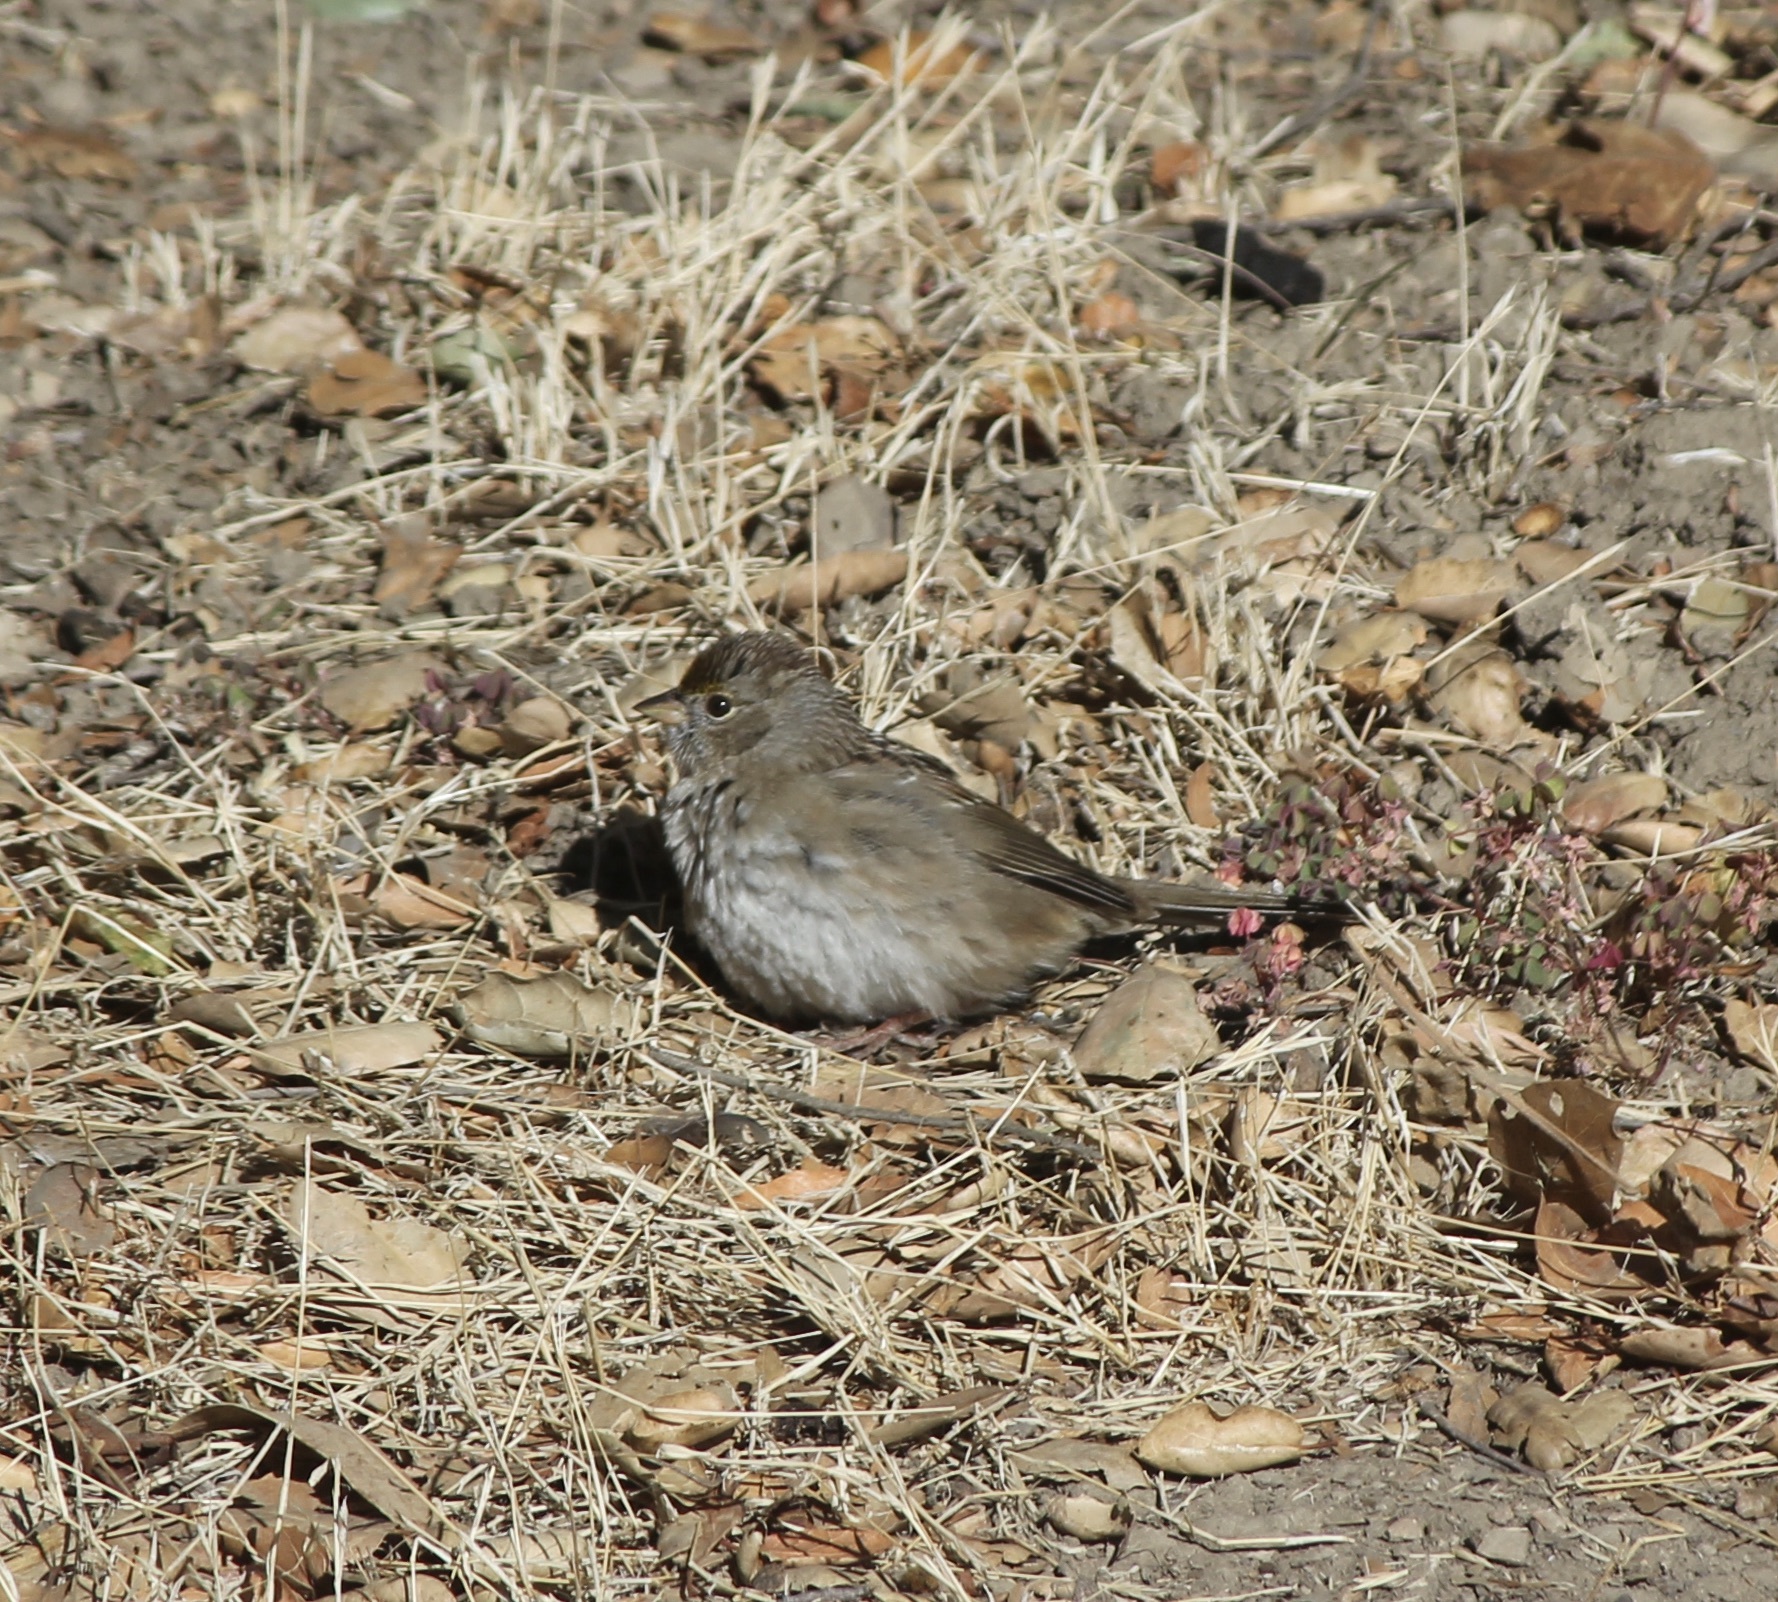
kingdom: Animalia
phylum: Chordata
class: Aves
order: Passeriformes
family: Passerellidae
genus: Zonotrichia
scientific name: Zonotrichia atricapilla
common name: Golden-crowned sparrow
